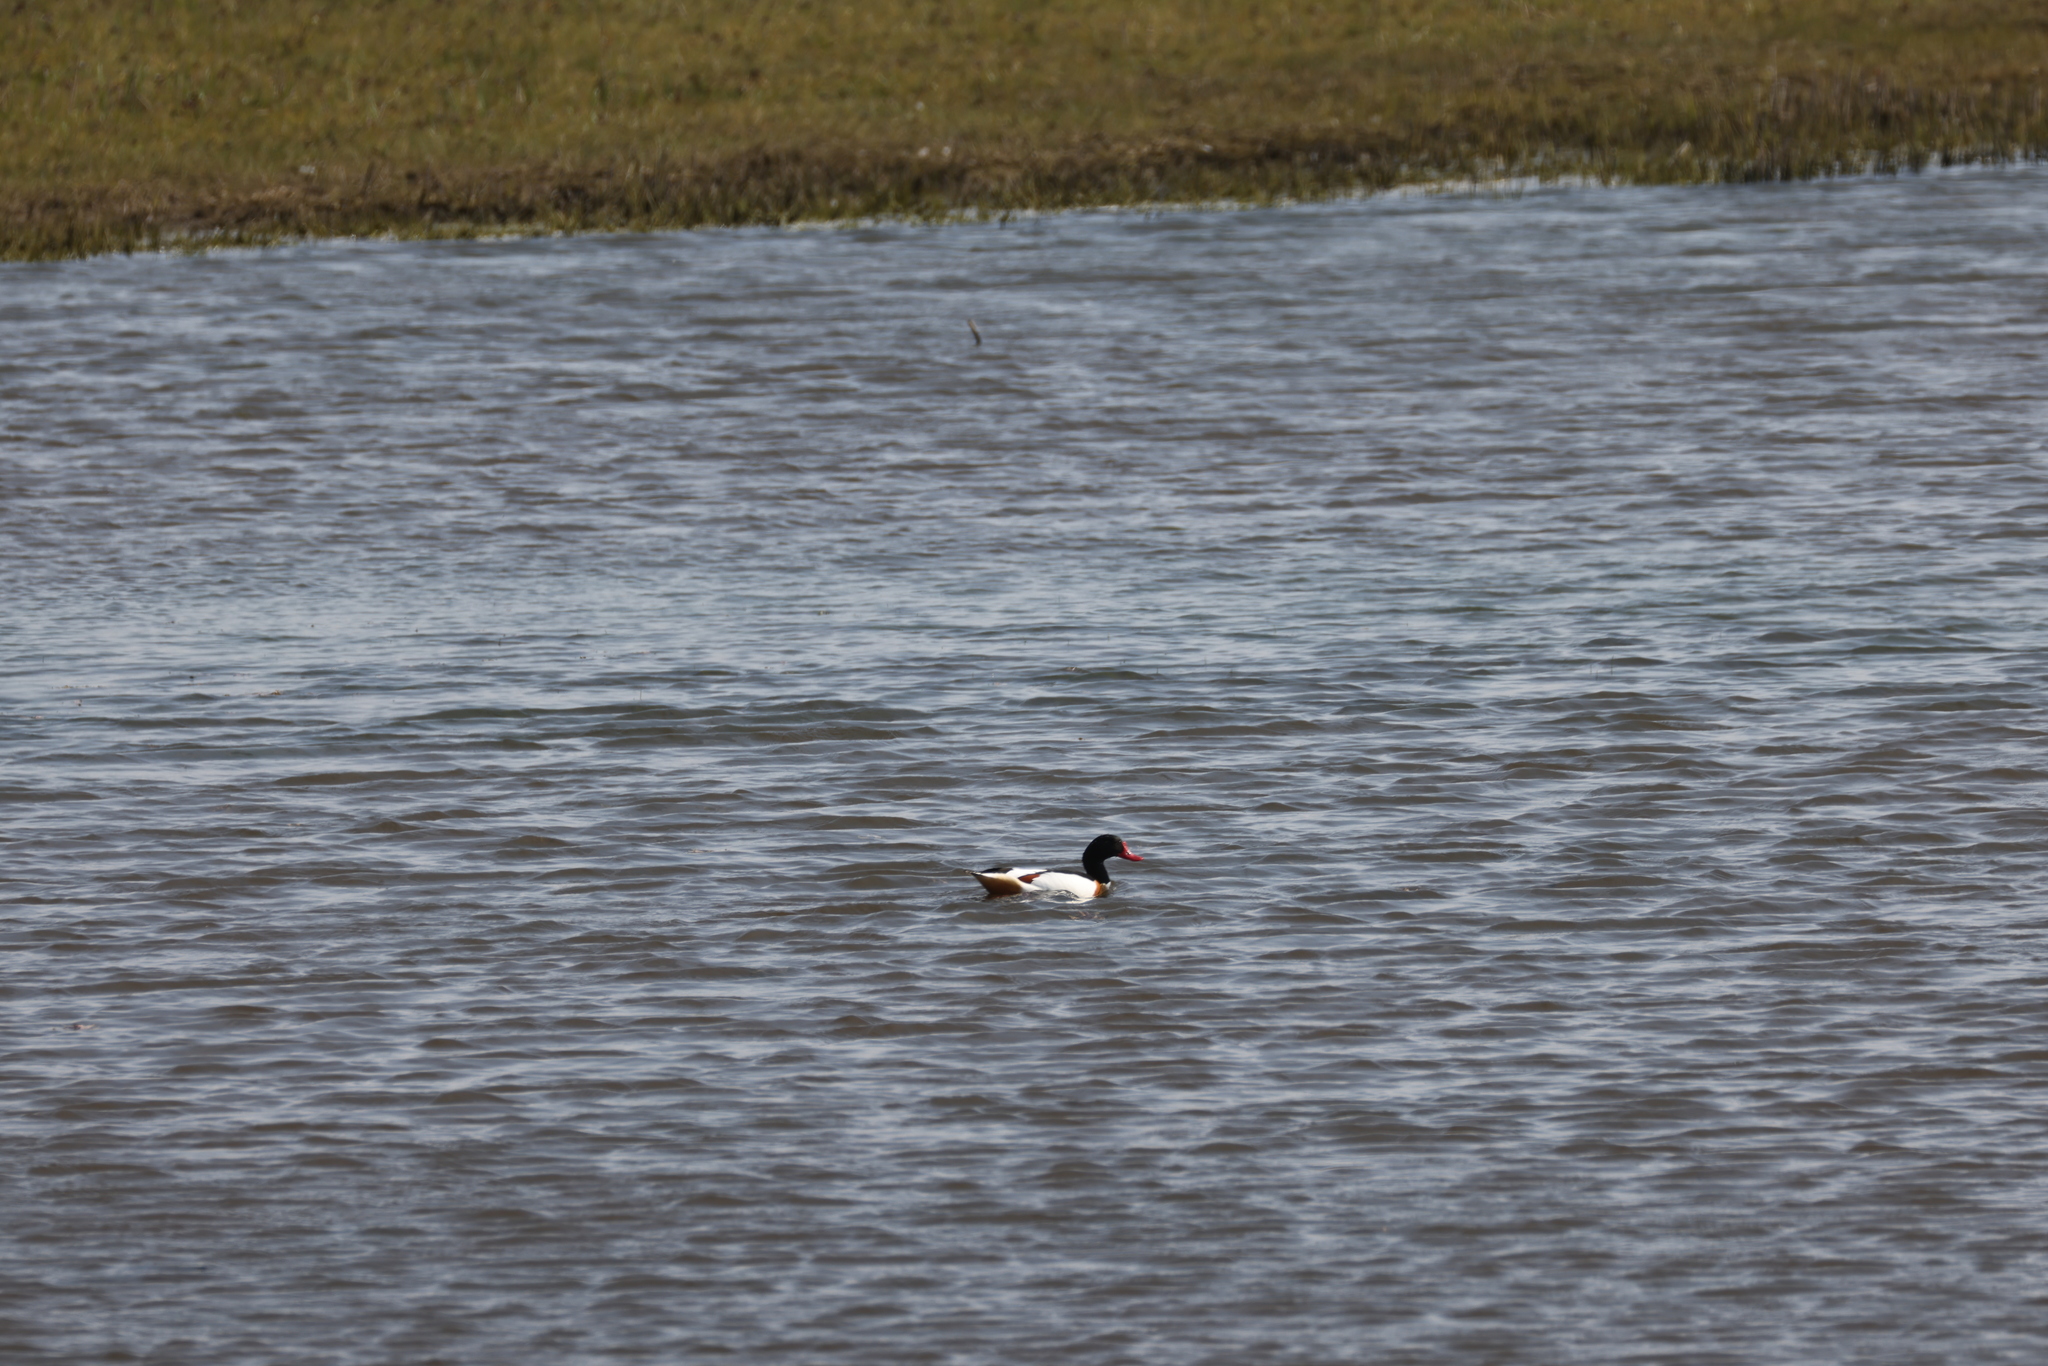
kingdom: Animalia
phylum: Chordata
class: Aves
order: Anseriformes
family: Anatidae
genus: Tadorna
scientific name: Tadorna tadorna
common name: Common shelduck
